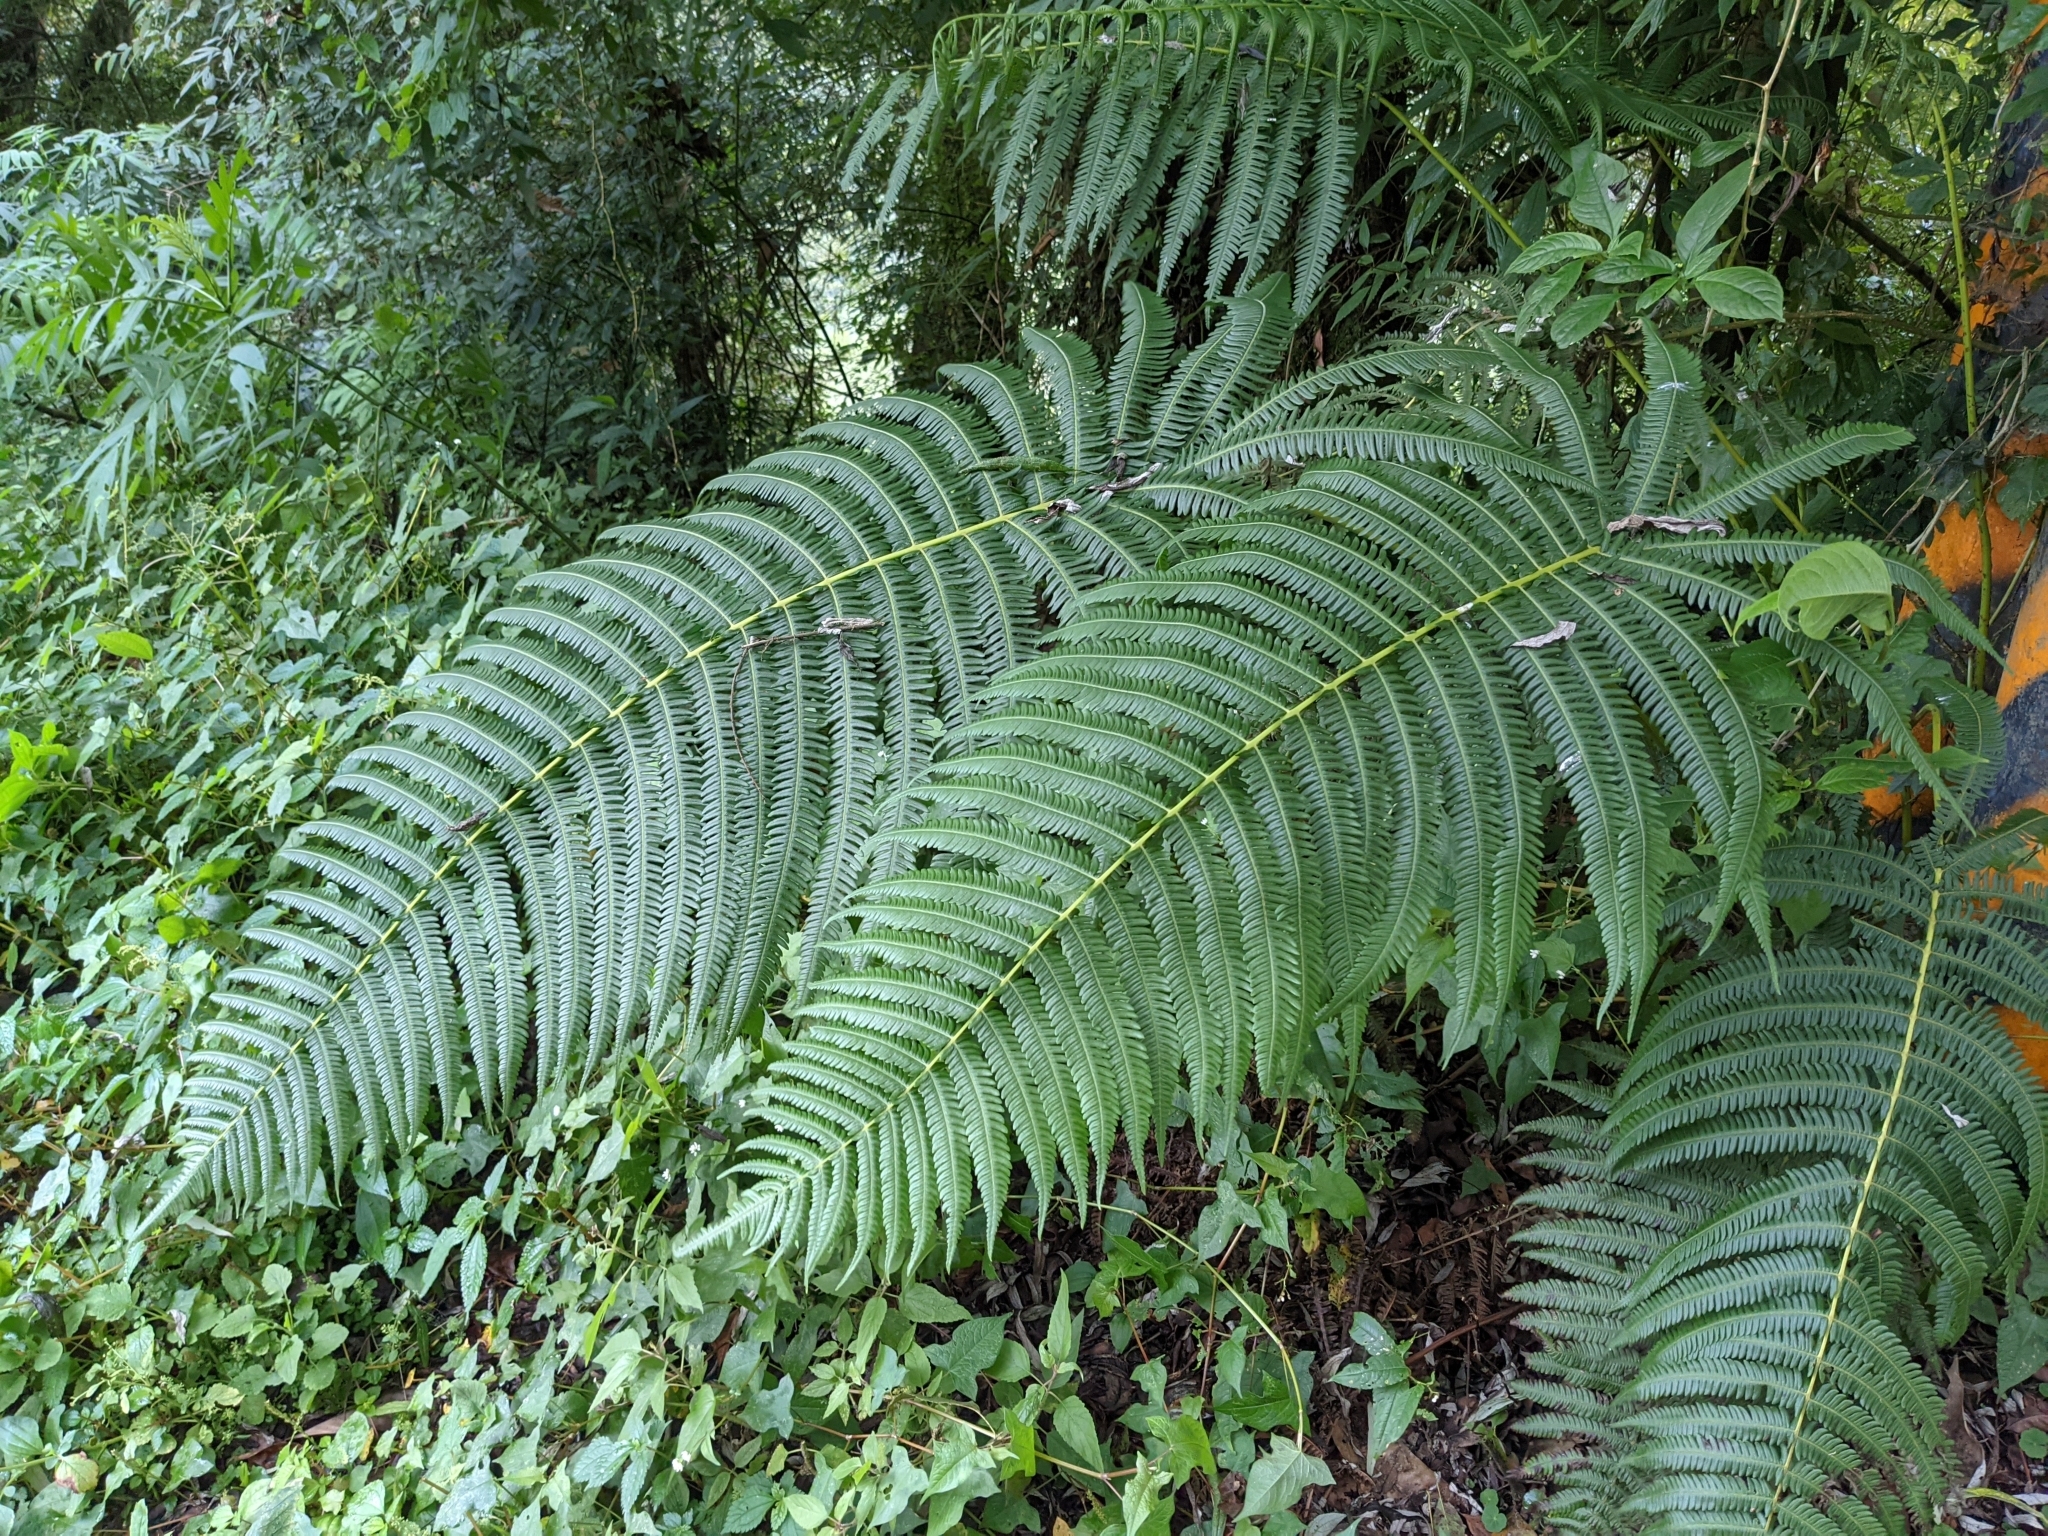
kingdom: Plantae
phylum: Tracheophyta
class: Polypodiopsida
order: Polypodiales
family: Thelypteridaceae
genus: Glaphyropteridopsis
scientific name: Glaphyropteridopsis erubescens
